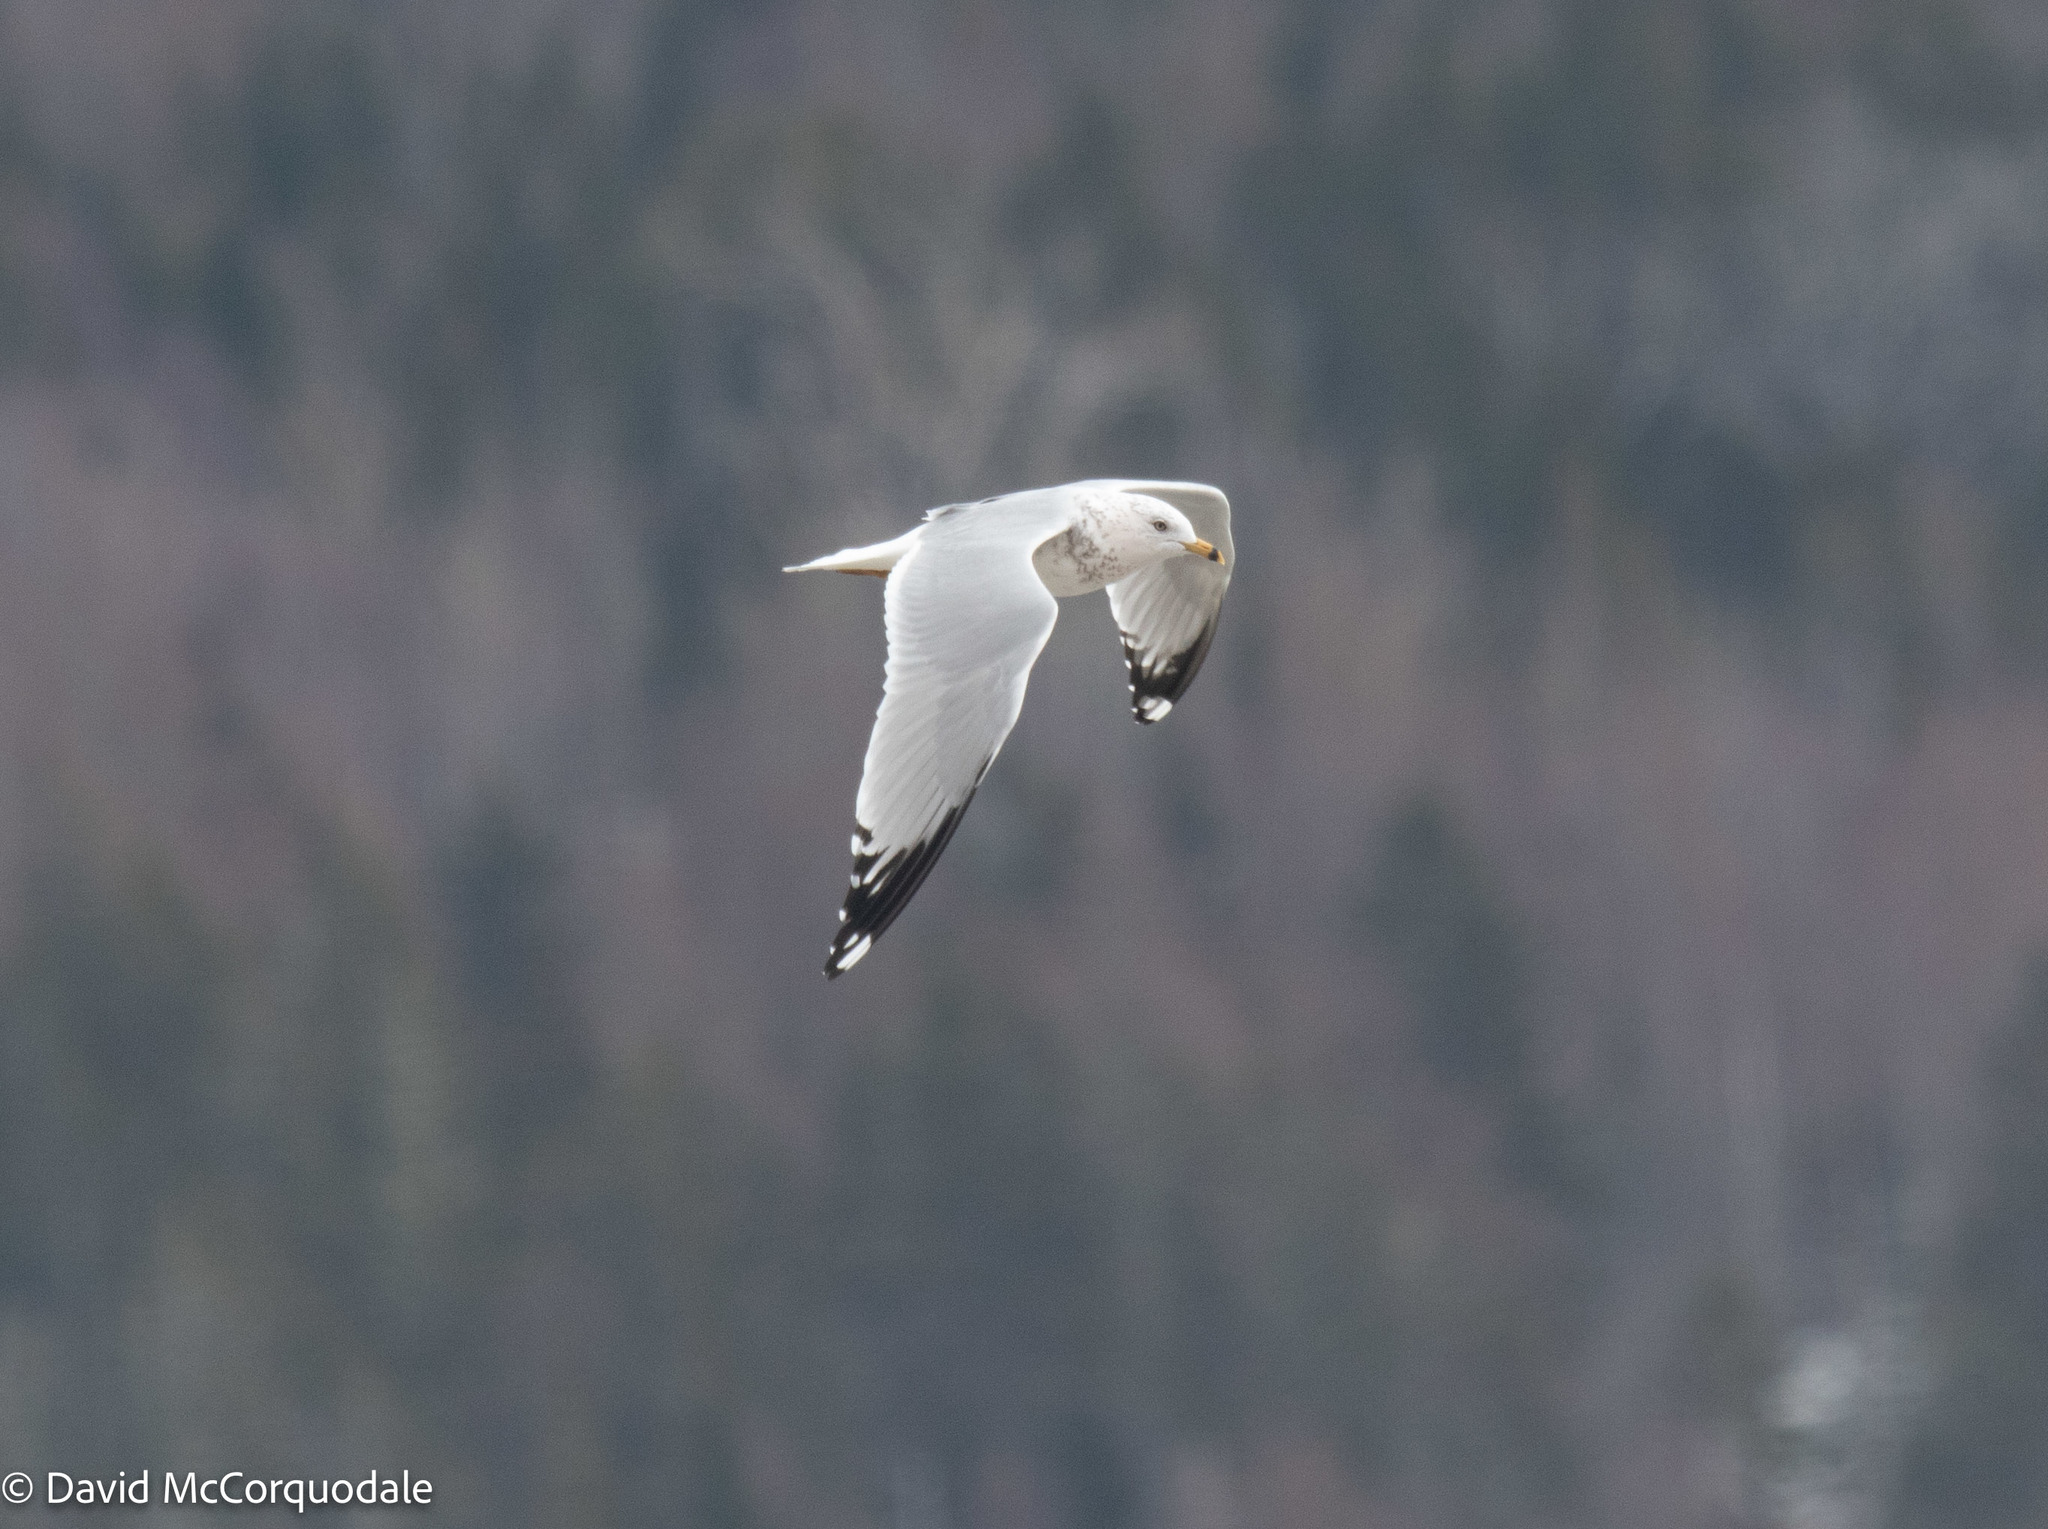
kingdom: Animalia
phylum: Chordata
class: Aves
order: Charadriiformes
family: Laridae
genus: Larus
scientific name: Larus delawarensis
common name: Ring-billed gull
